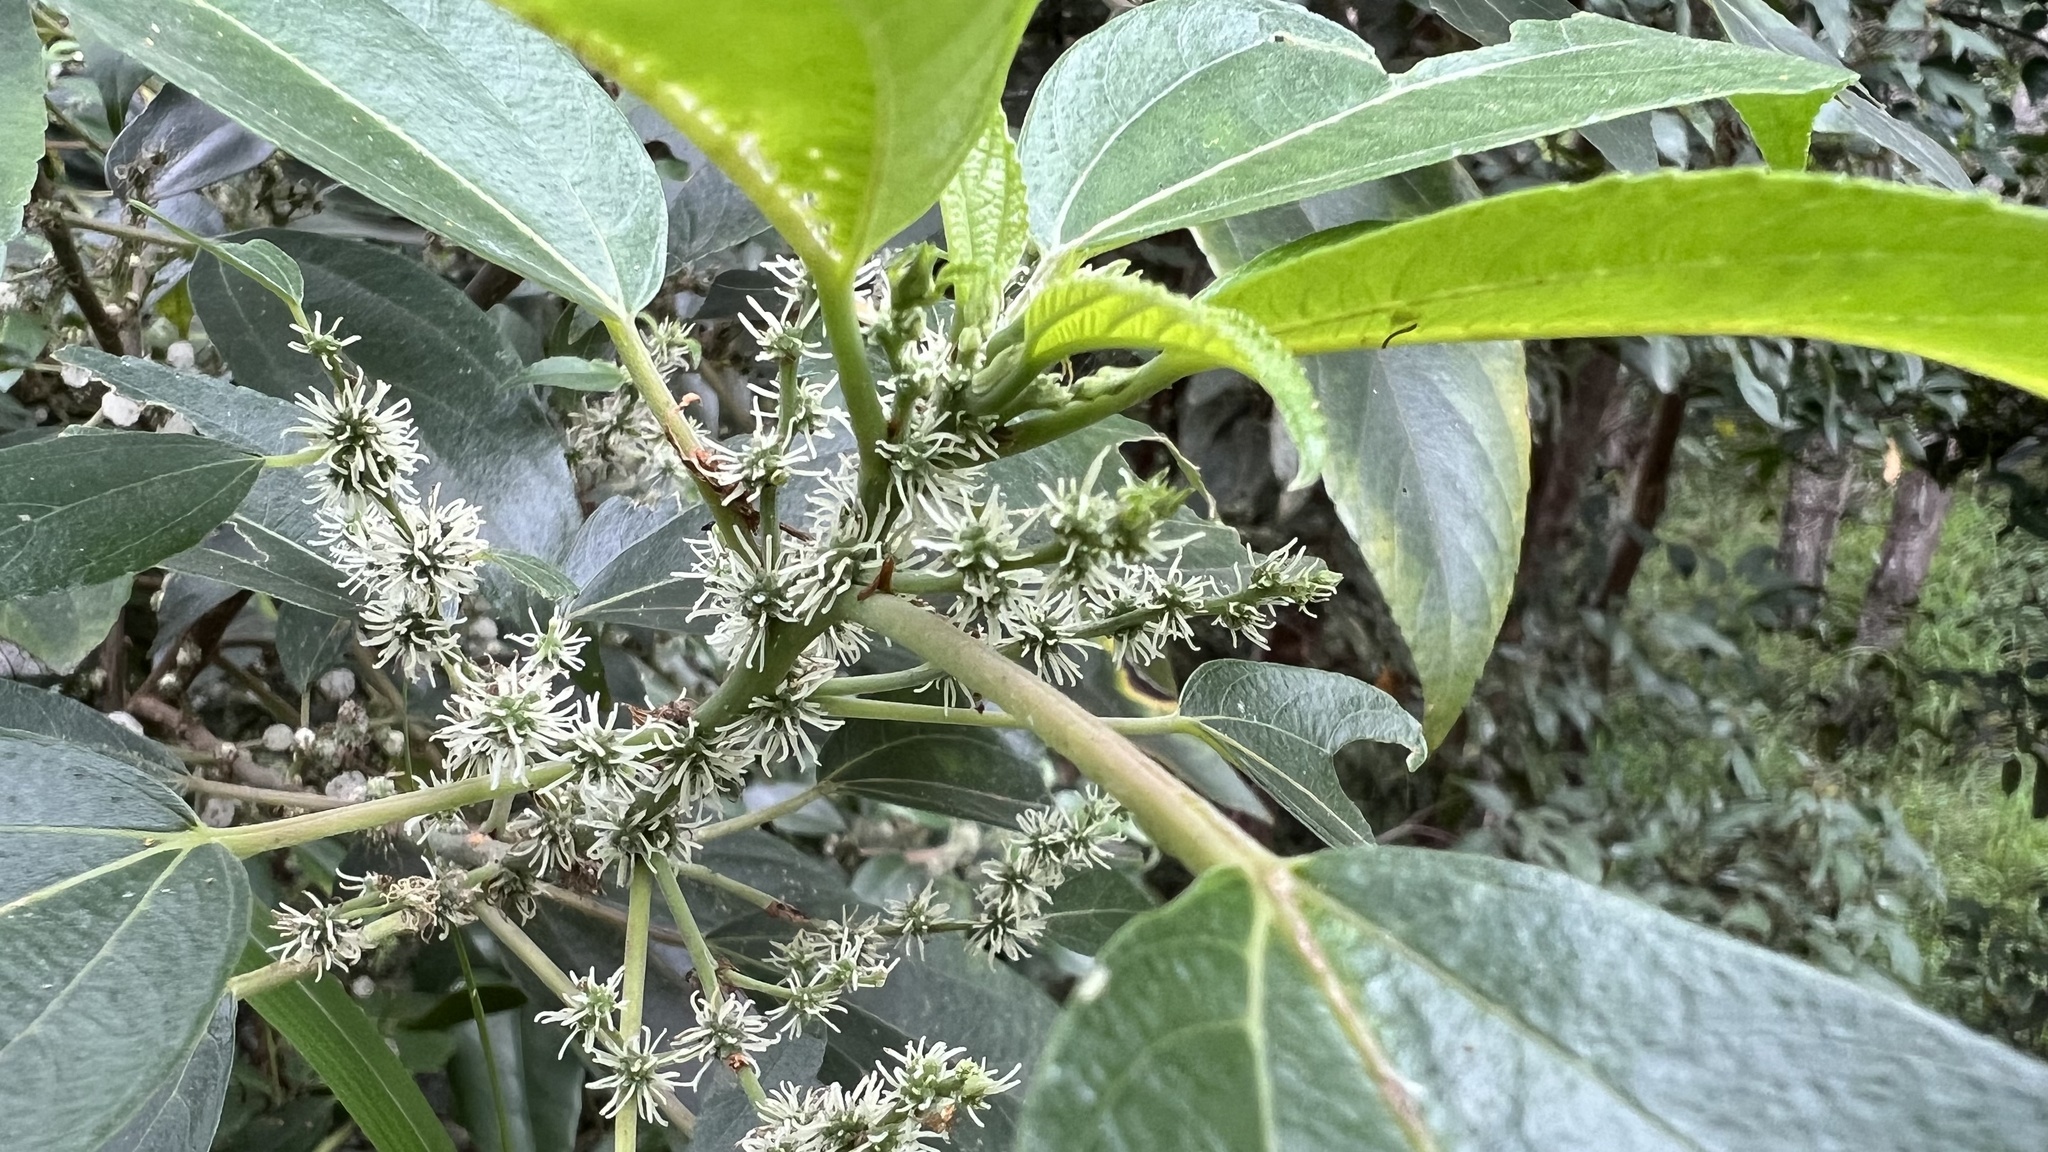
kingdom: Plantae
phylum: Tracheophyta
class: Magnoliopsida
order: Rosales
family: Urticaceae
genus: Pipturus
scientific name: Pipturus argenteus
